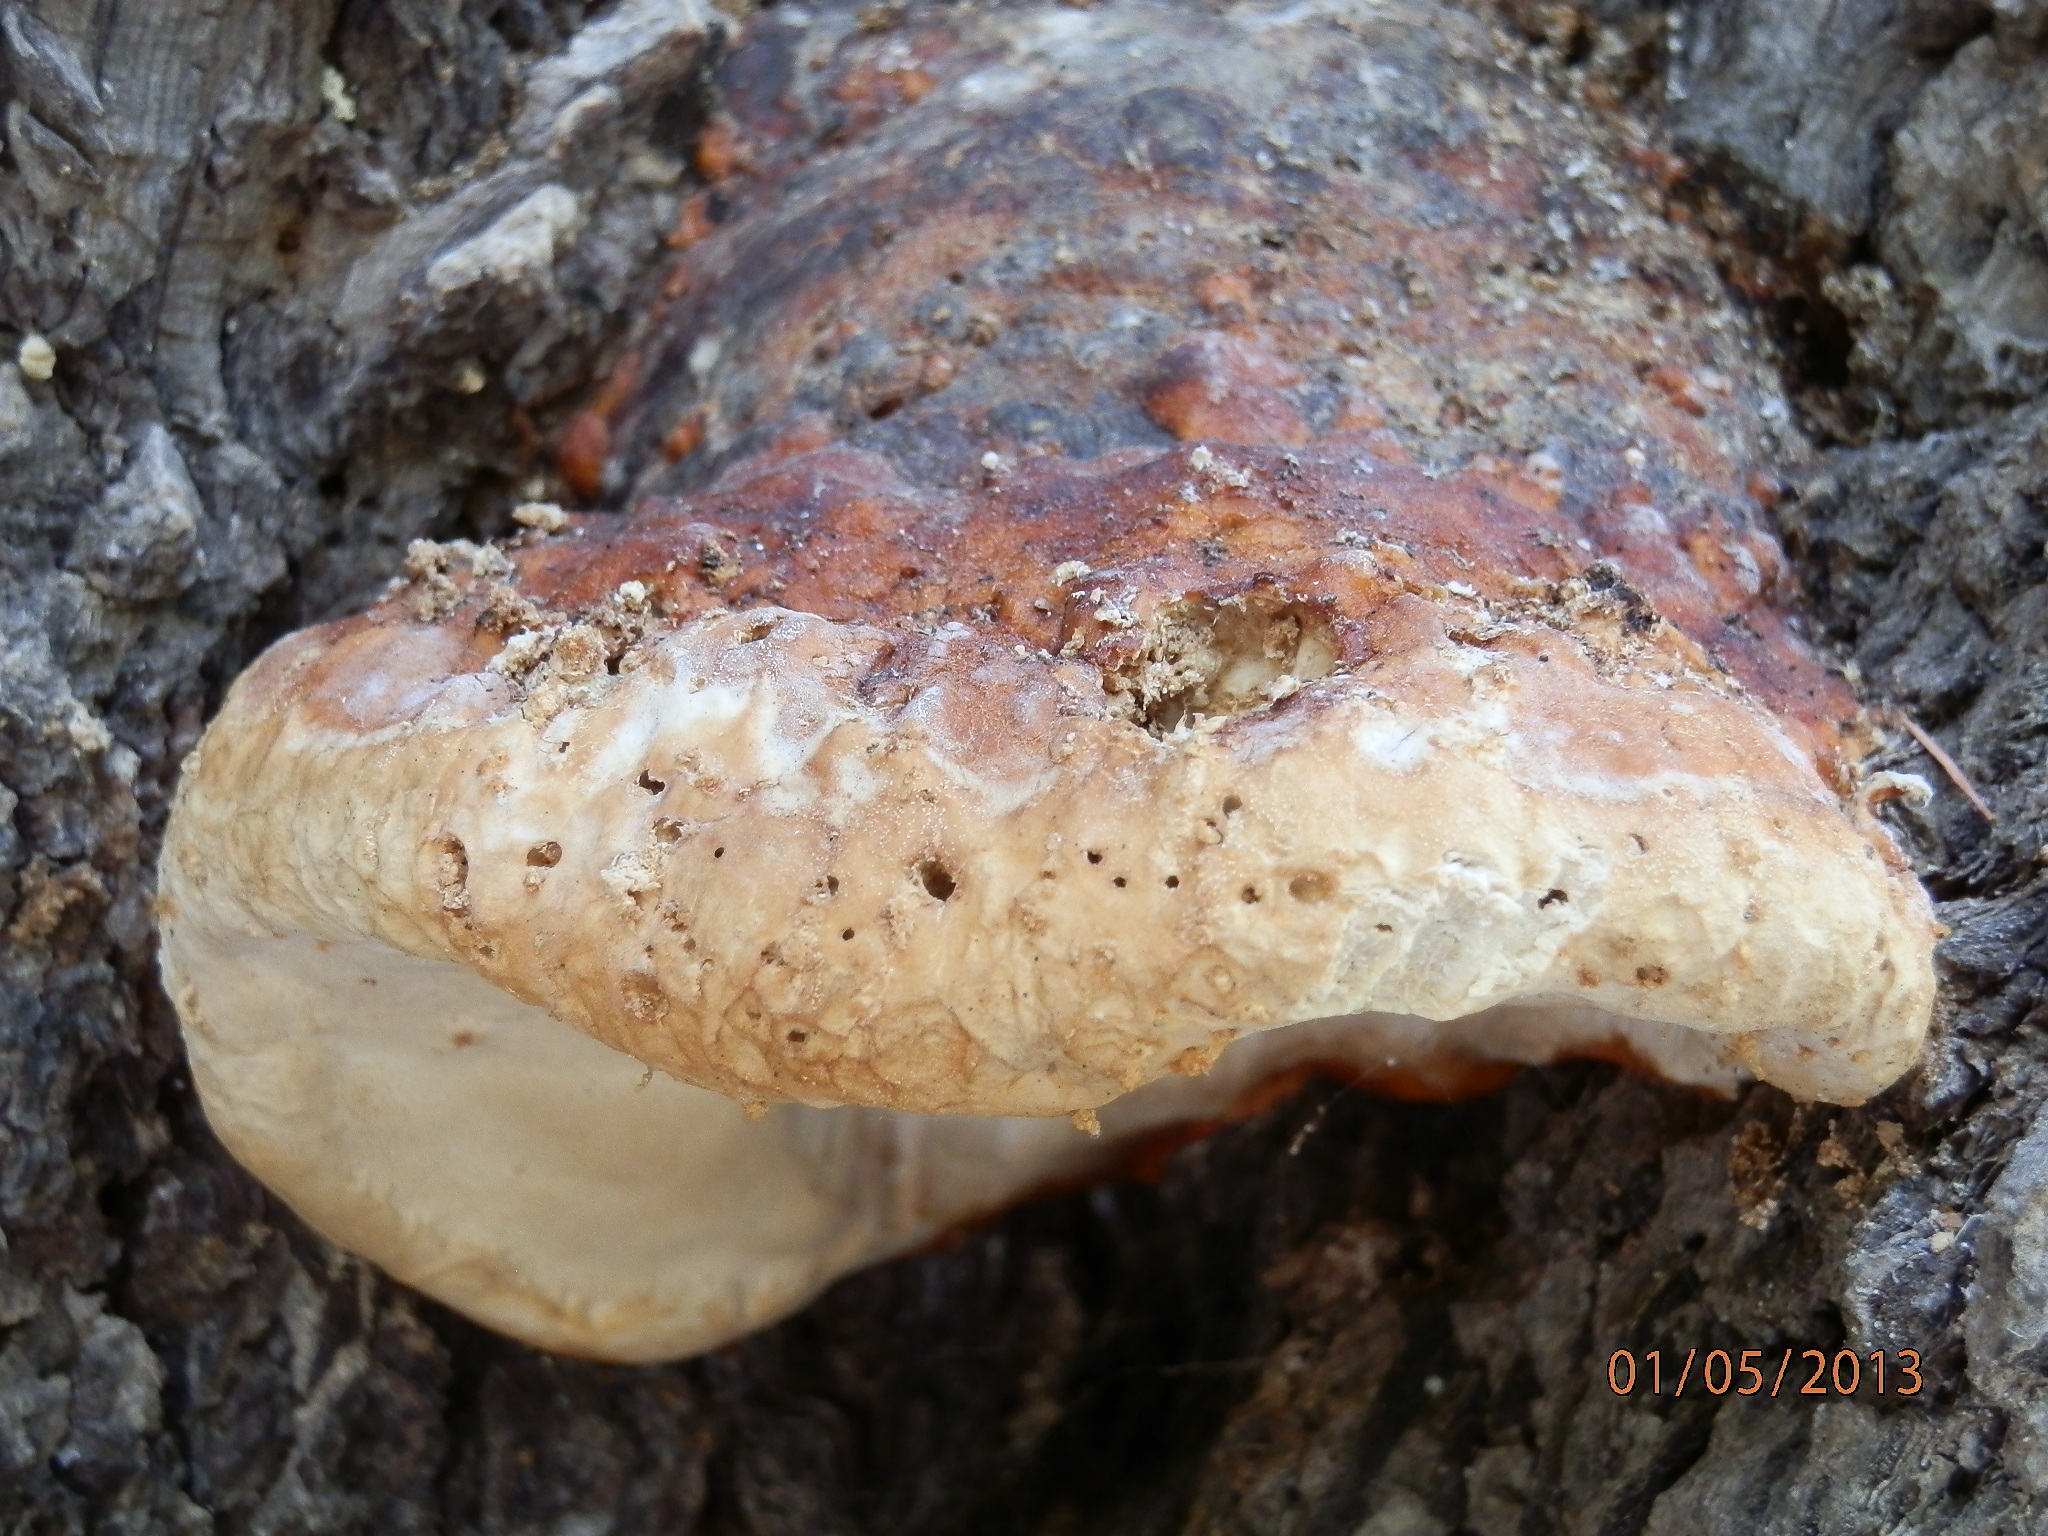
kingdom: Fungi
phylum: Basidiomycota
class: Agaricomycetes
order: Polyporales
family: Fomitopsidaceae
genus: Fomitopsis
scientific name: Fomitopsis schrenkii
